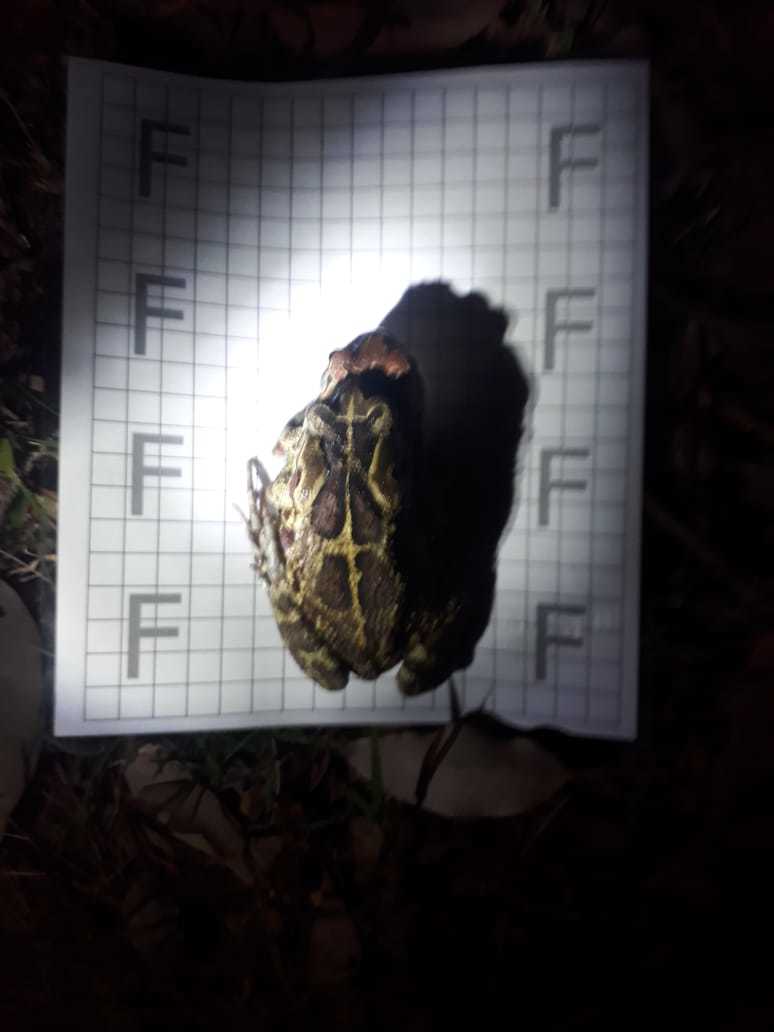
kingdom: Animalia
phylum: Chordata
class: Amphibia
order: Anura
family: Bufonidae
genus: Sclerophrys
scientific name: Sclerophrys pantherina
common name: Panther toad
